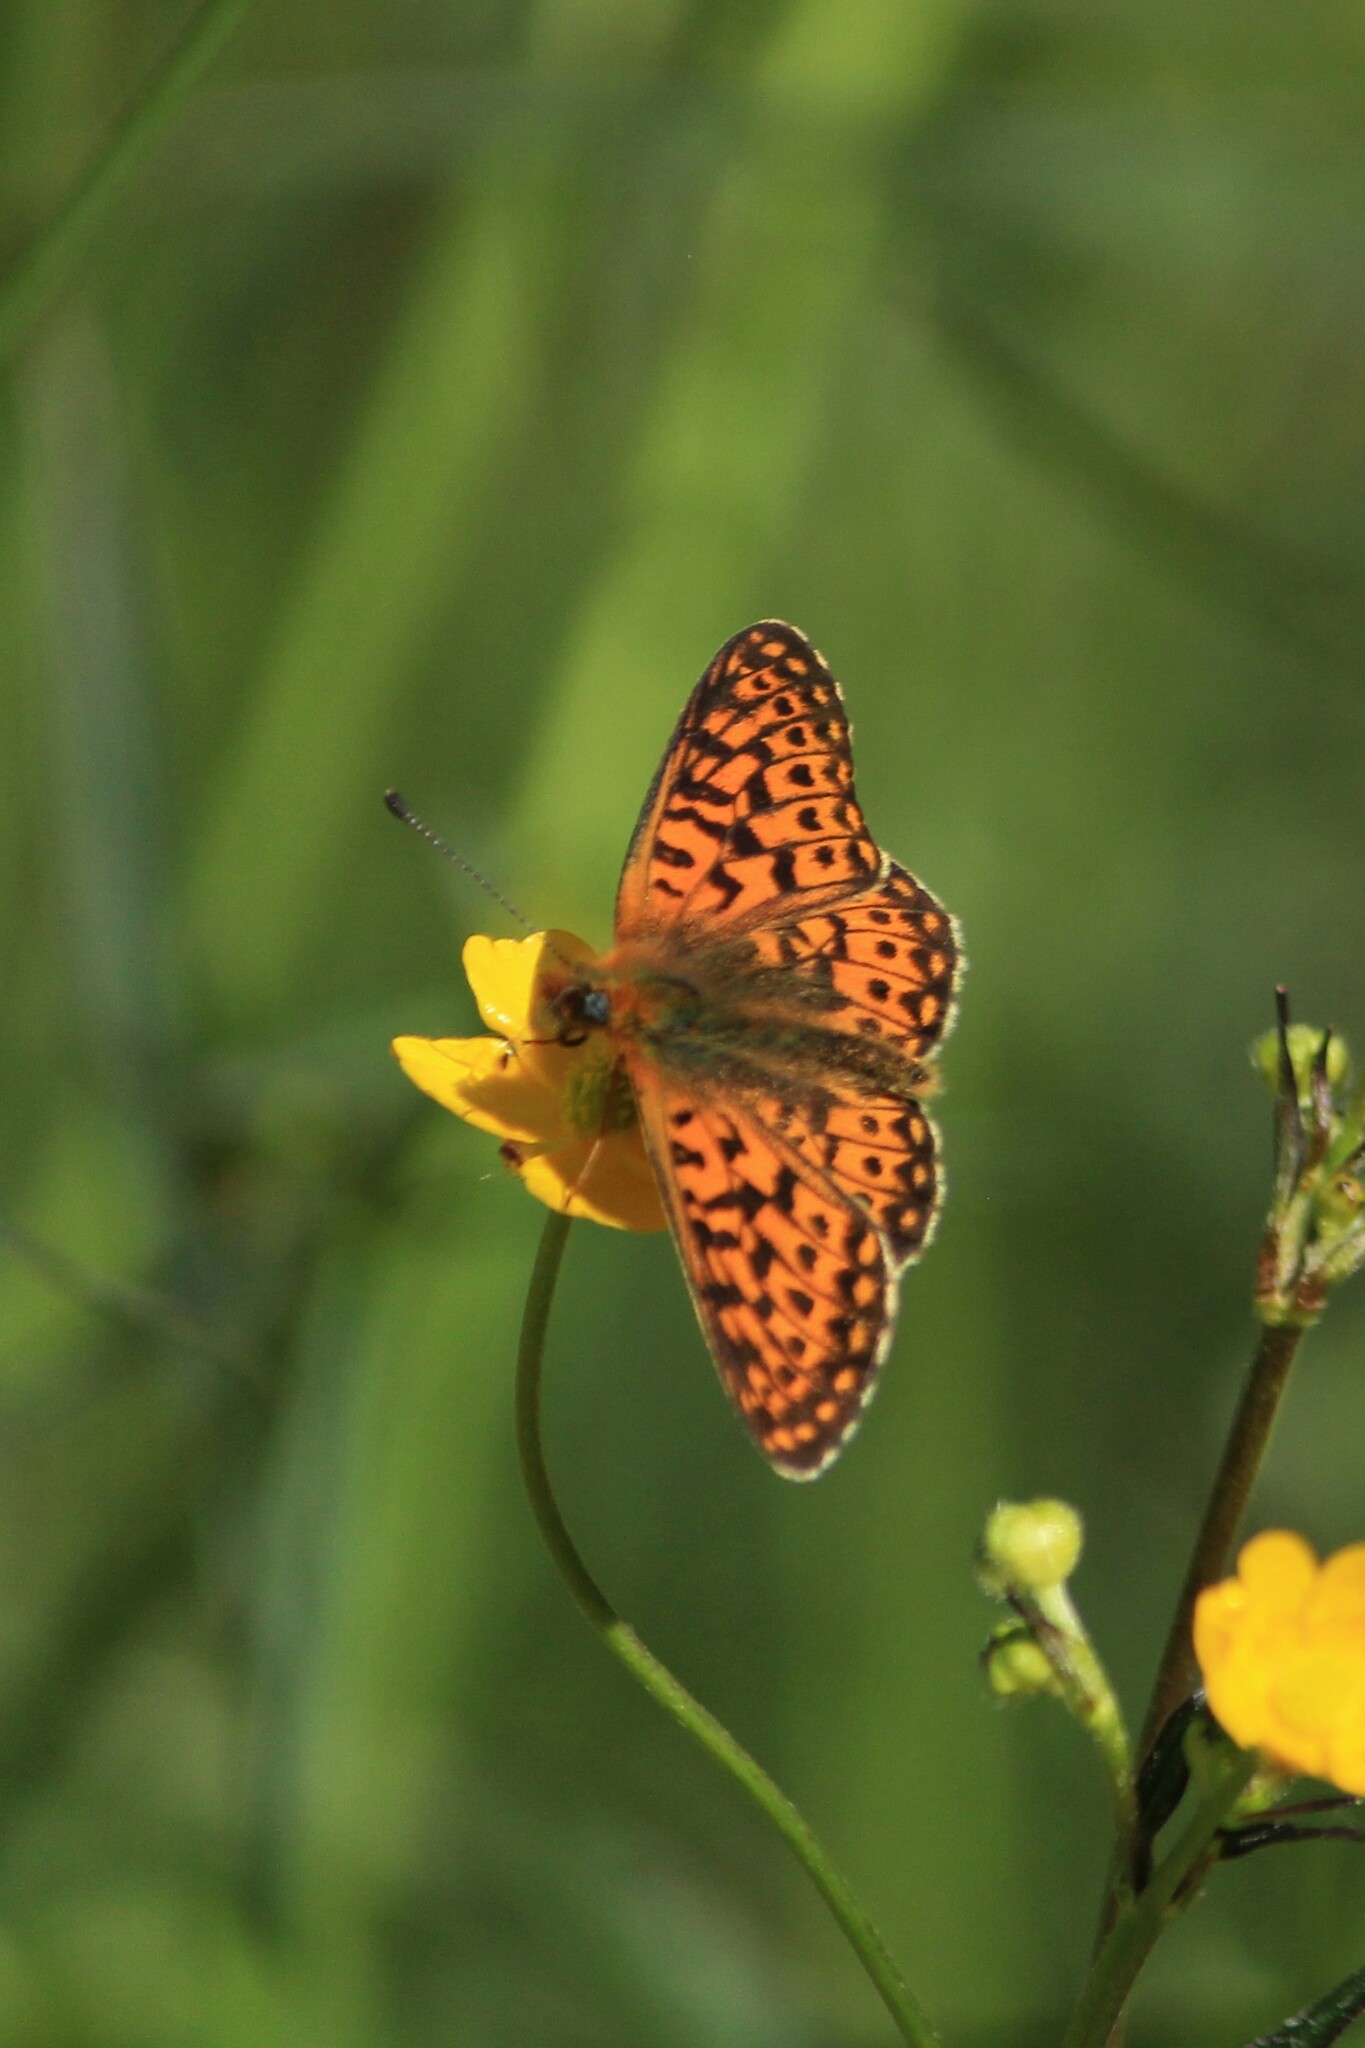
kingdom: Animalia
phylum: Arthropoda
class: Insecta
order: Lepidoptera
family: Nymphalidae
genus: Clossiana
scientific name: Clossiana euphrosyne
